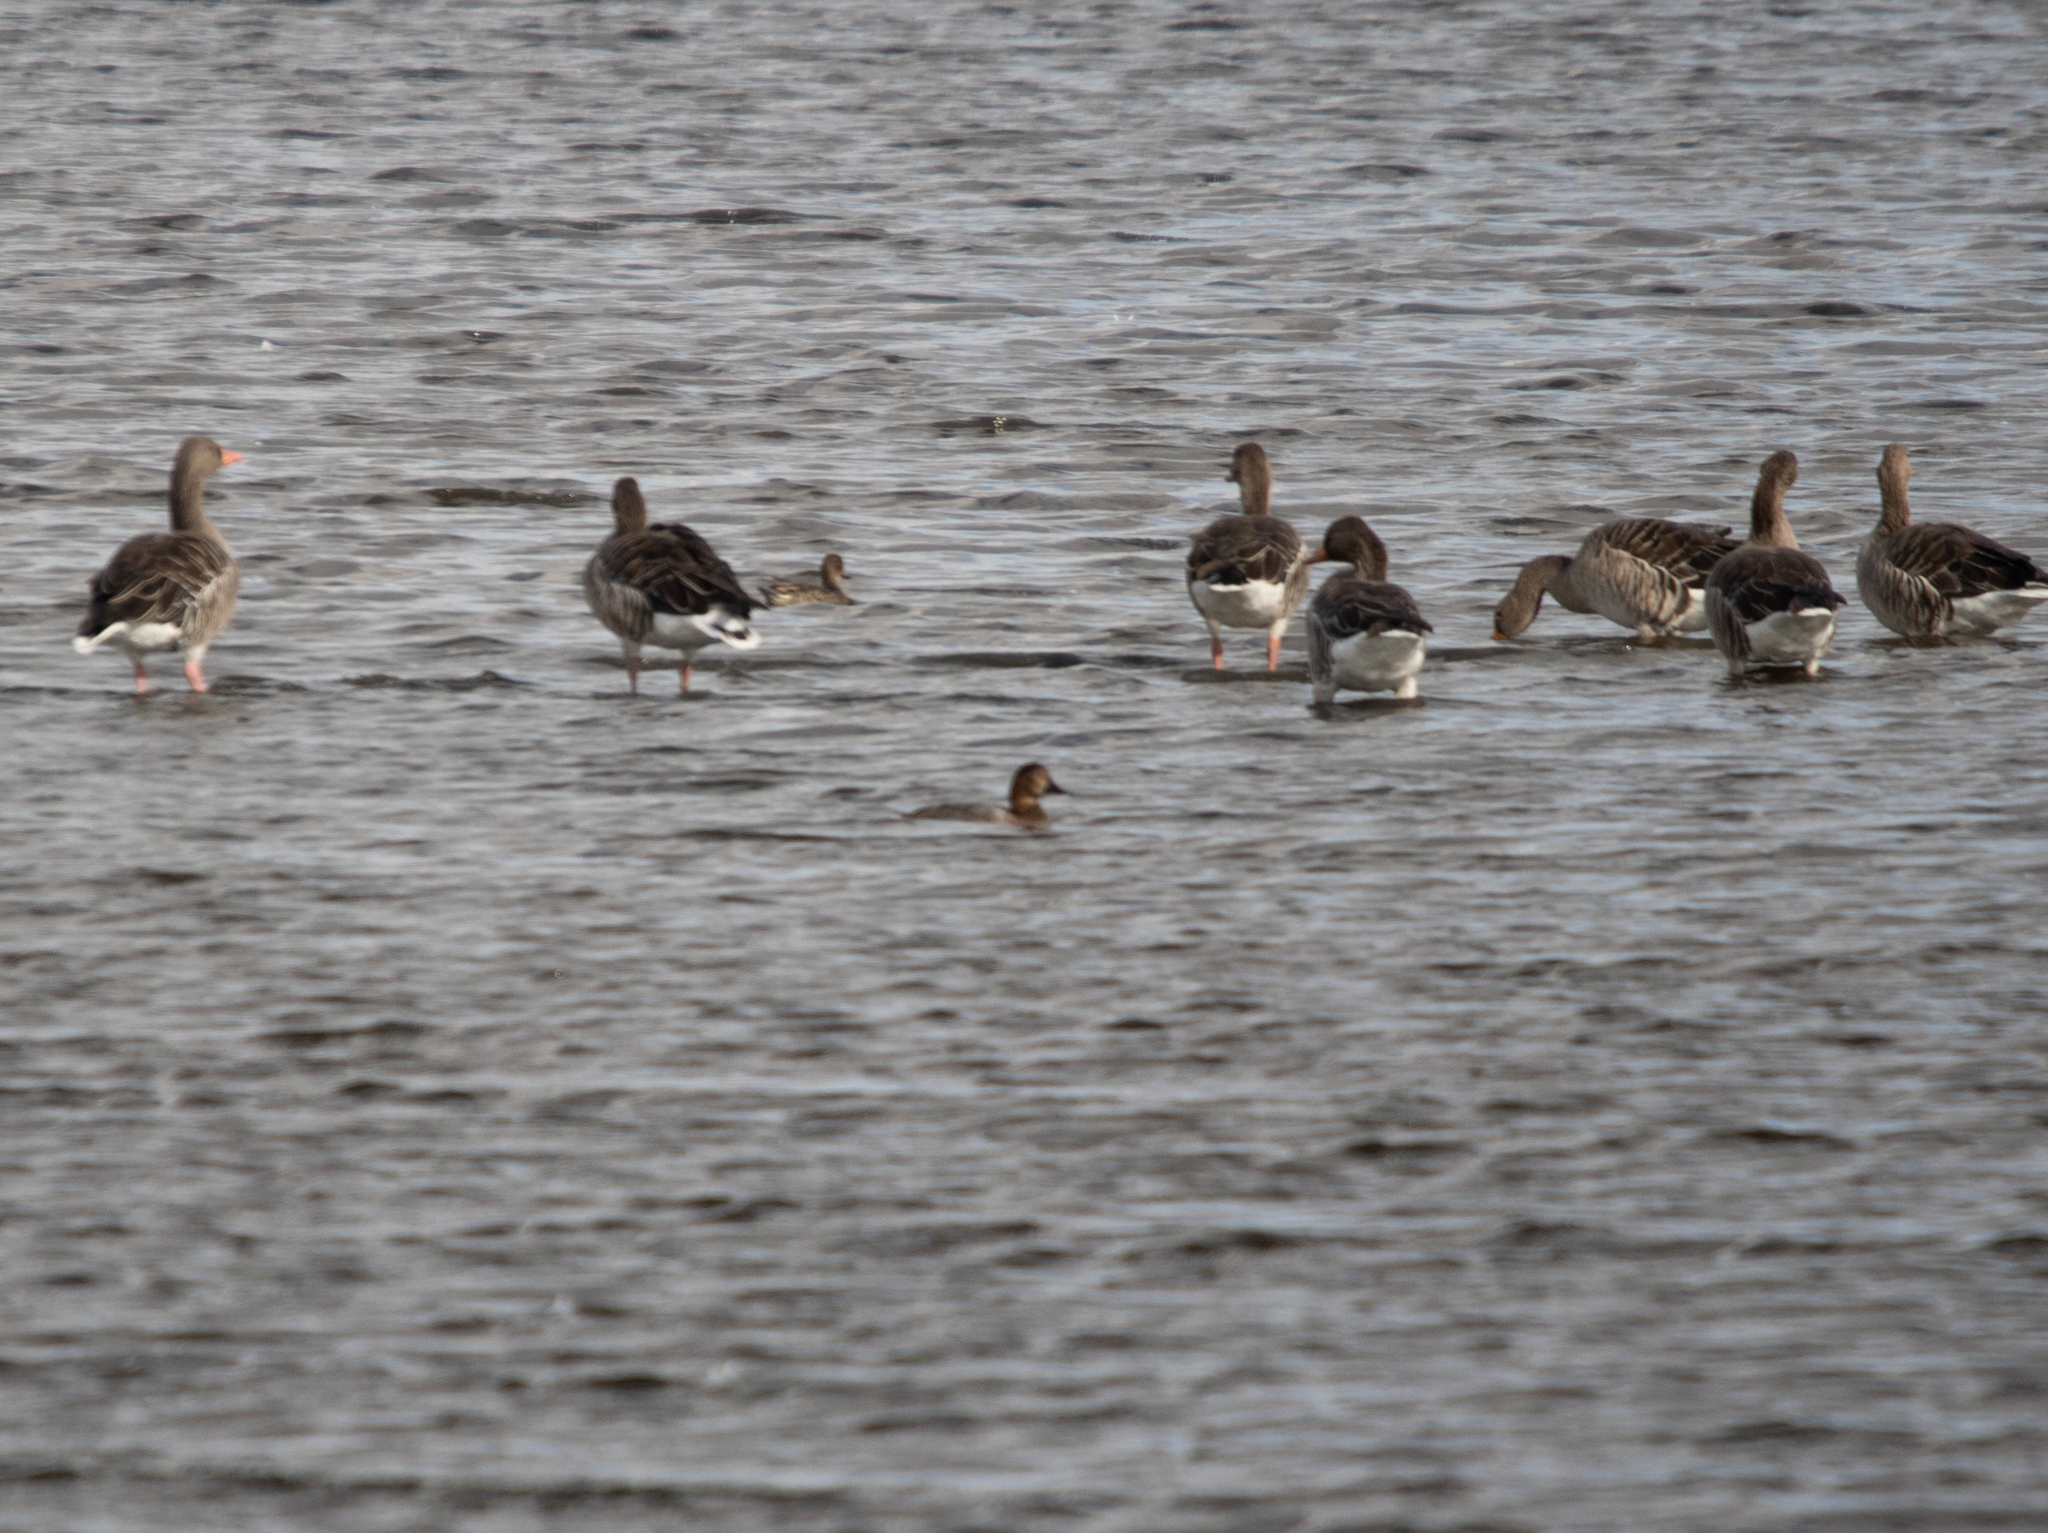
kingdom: Animalia
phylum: Chordata
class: Aves
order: Anseriformes
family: Anatidae
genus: Aythya
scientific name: Aythya ferina
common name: Common pochard
